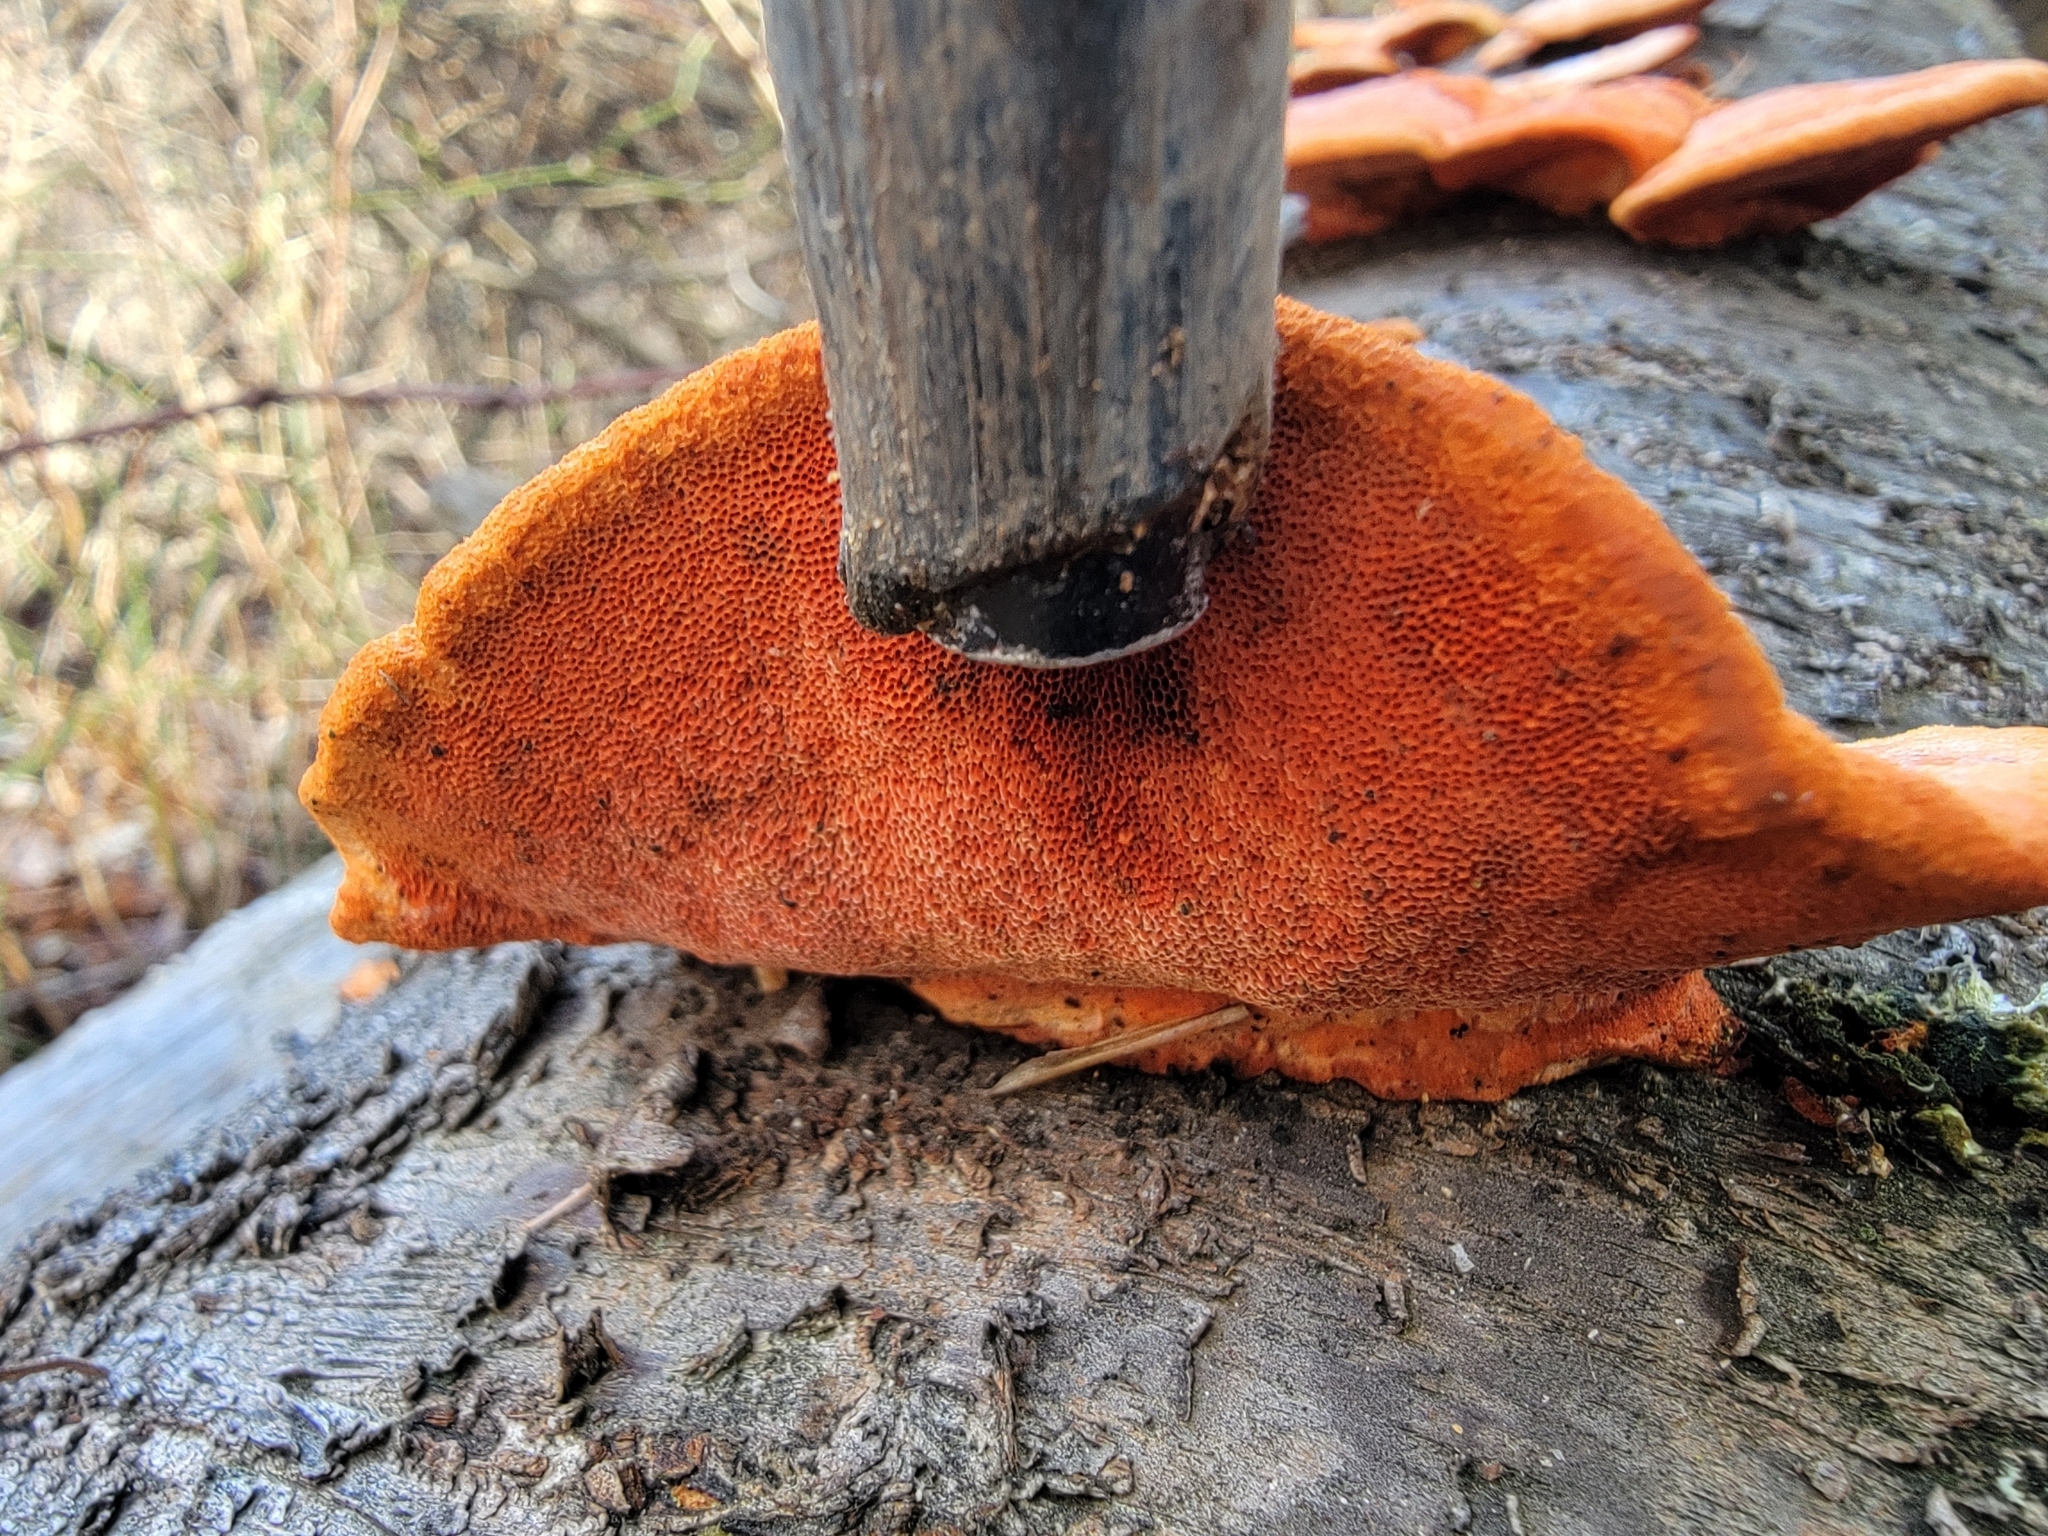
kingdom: Fungi
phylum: Basidiomycota
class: Agaricomycetes
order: Polyporales
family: Polyporaceae
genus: Trametes
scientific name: Trametes cinnabarina
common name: Northern cinnabar polypore
